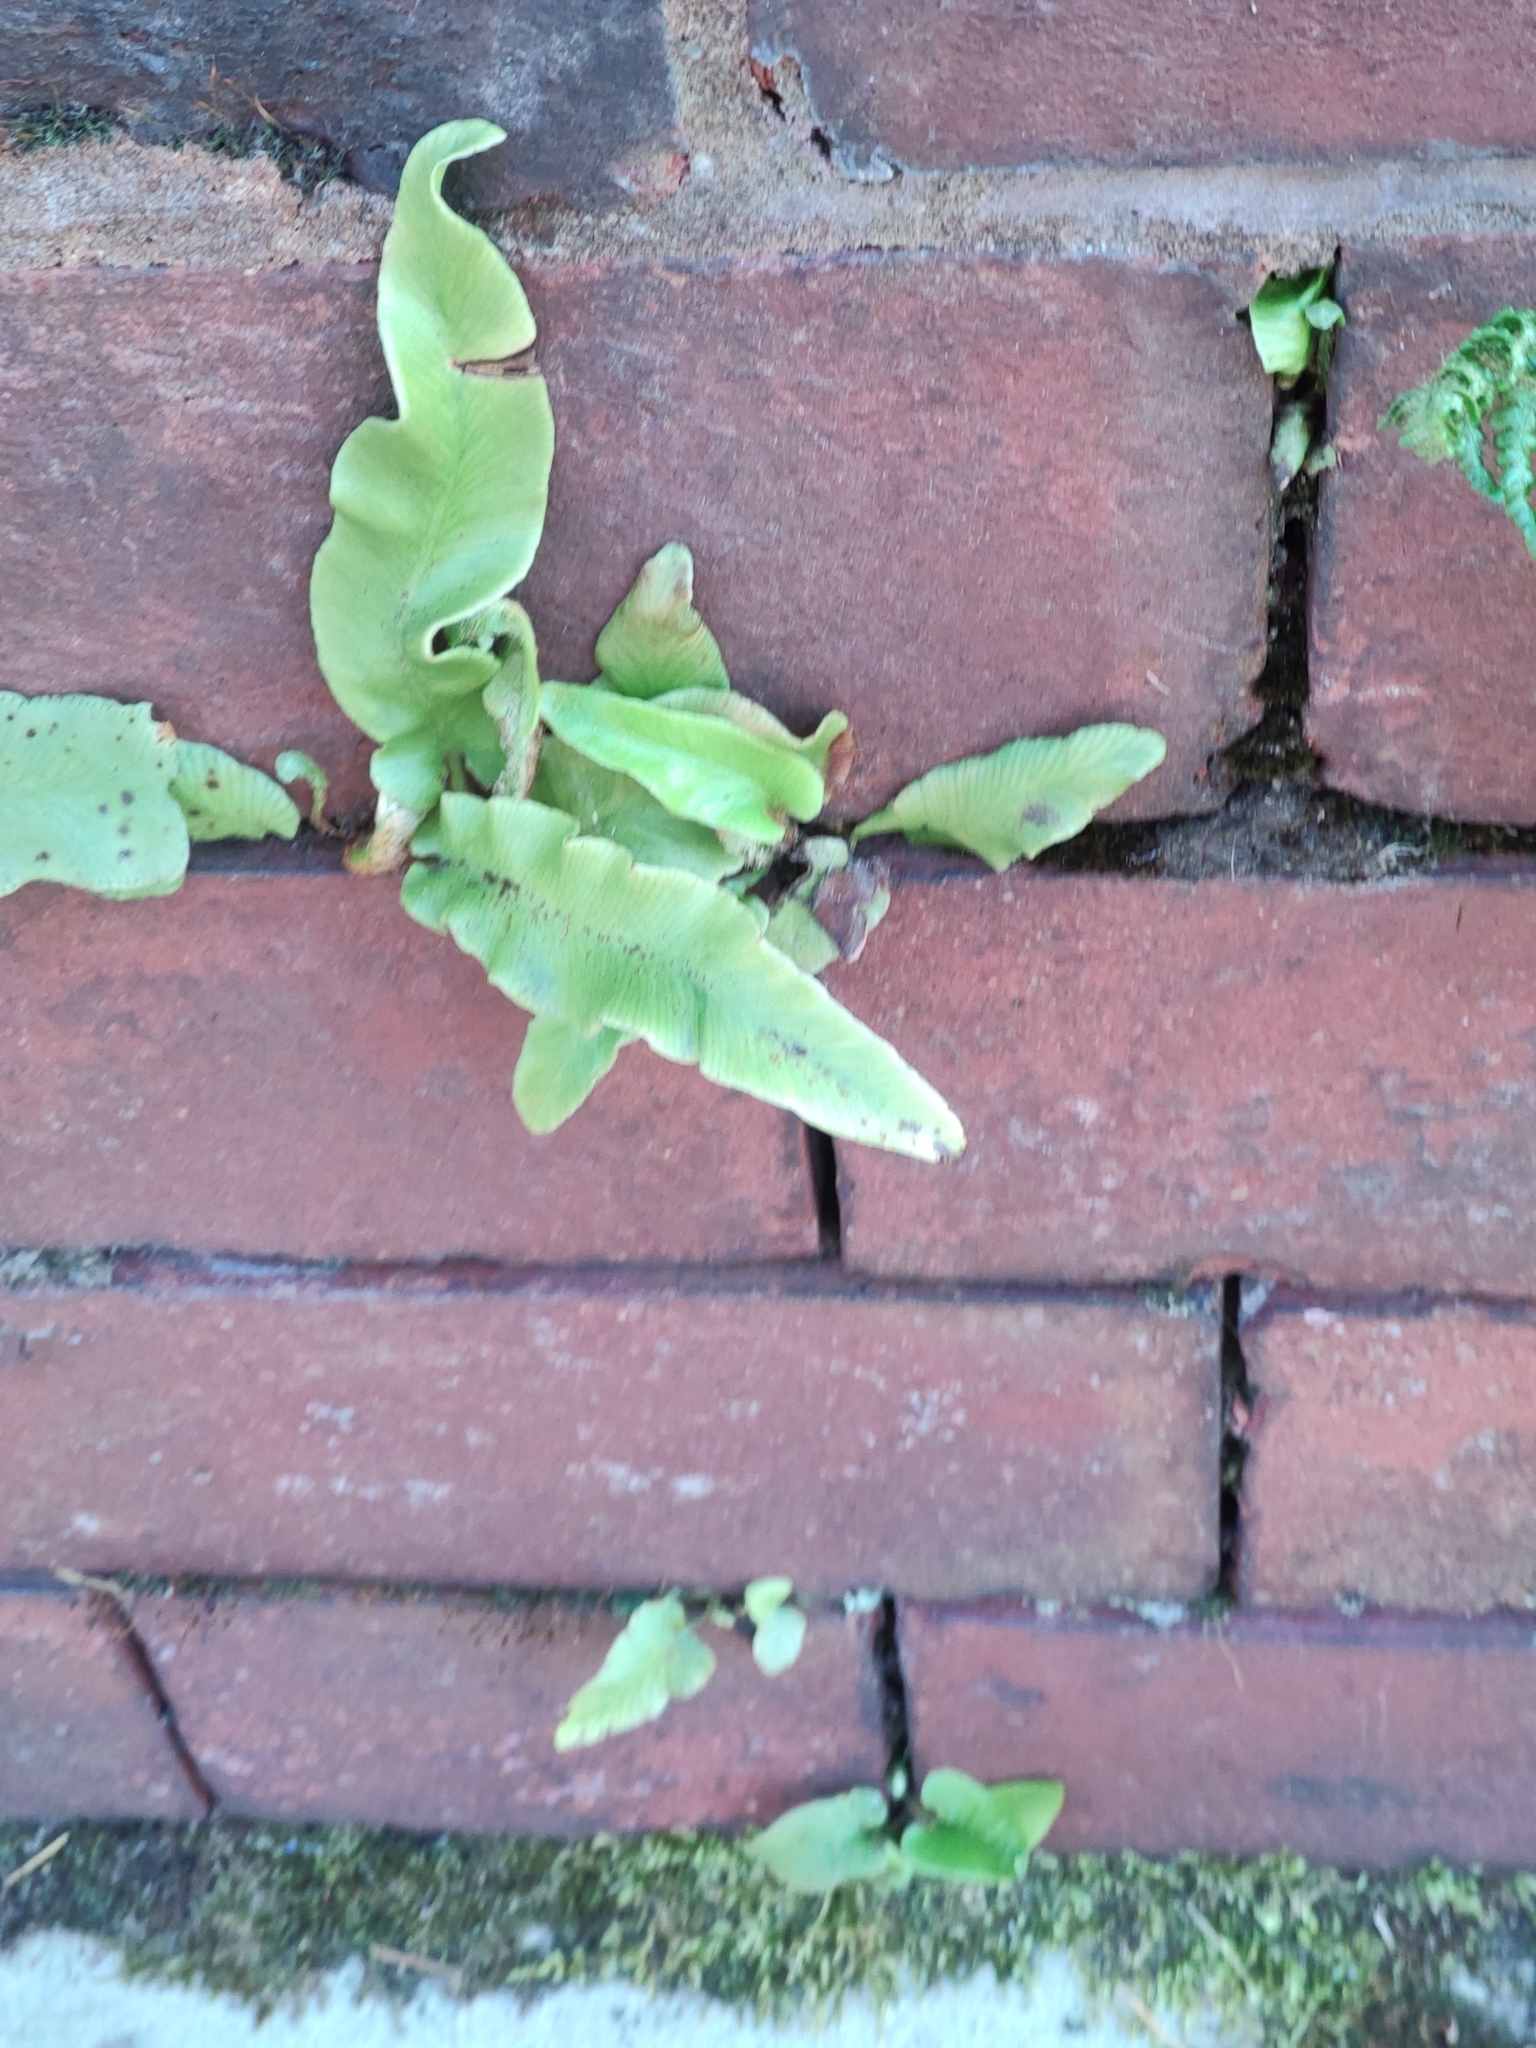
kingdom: Plantae
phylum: Tracheophyta
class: Polypodiopsida
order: Polypodiales
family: Aspleniaceae
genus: Asplenium
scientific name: Asplenium scolopendrium
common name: Hart's-tongue fern
